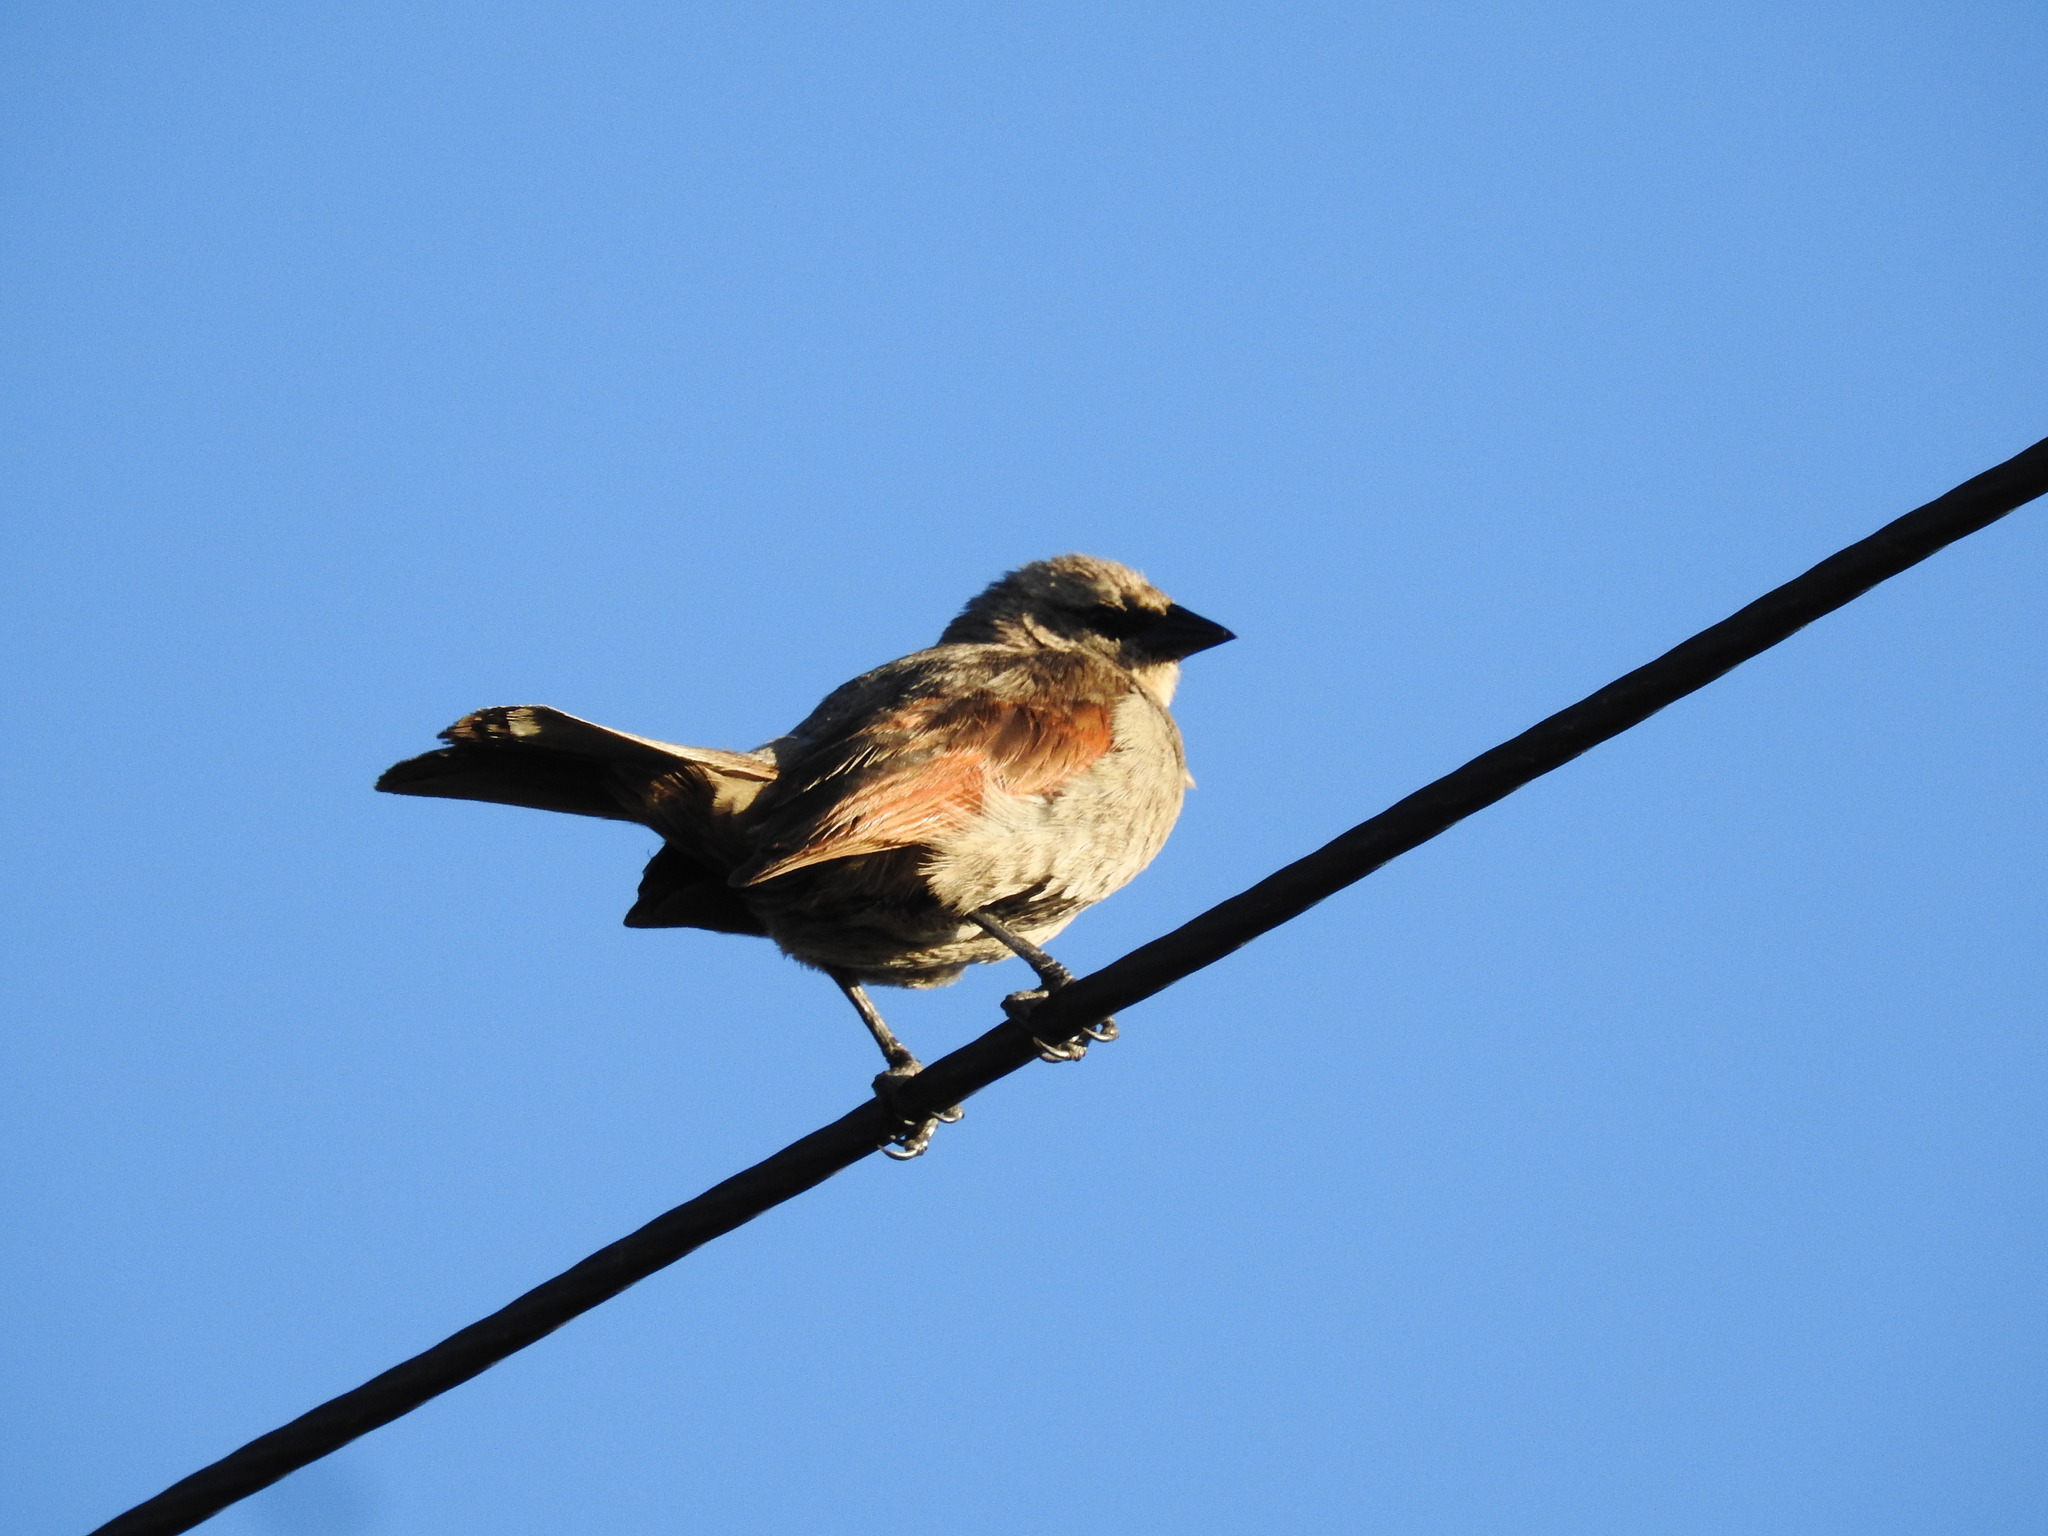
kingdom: Animalia
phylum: Chordata
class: Aves
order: Passeriformes
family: Icteridae
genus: Agelaioides
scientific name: Agelaioides badius
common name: Baywing
